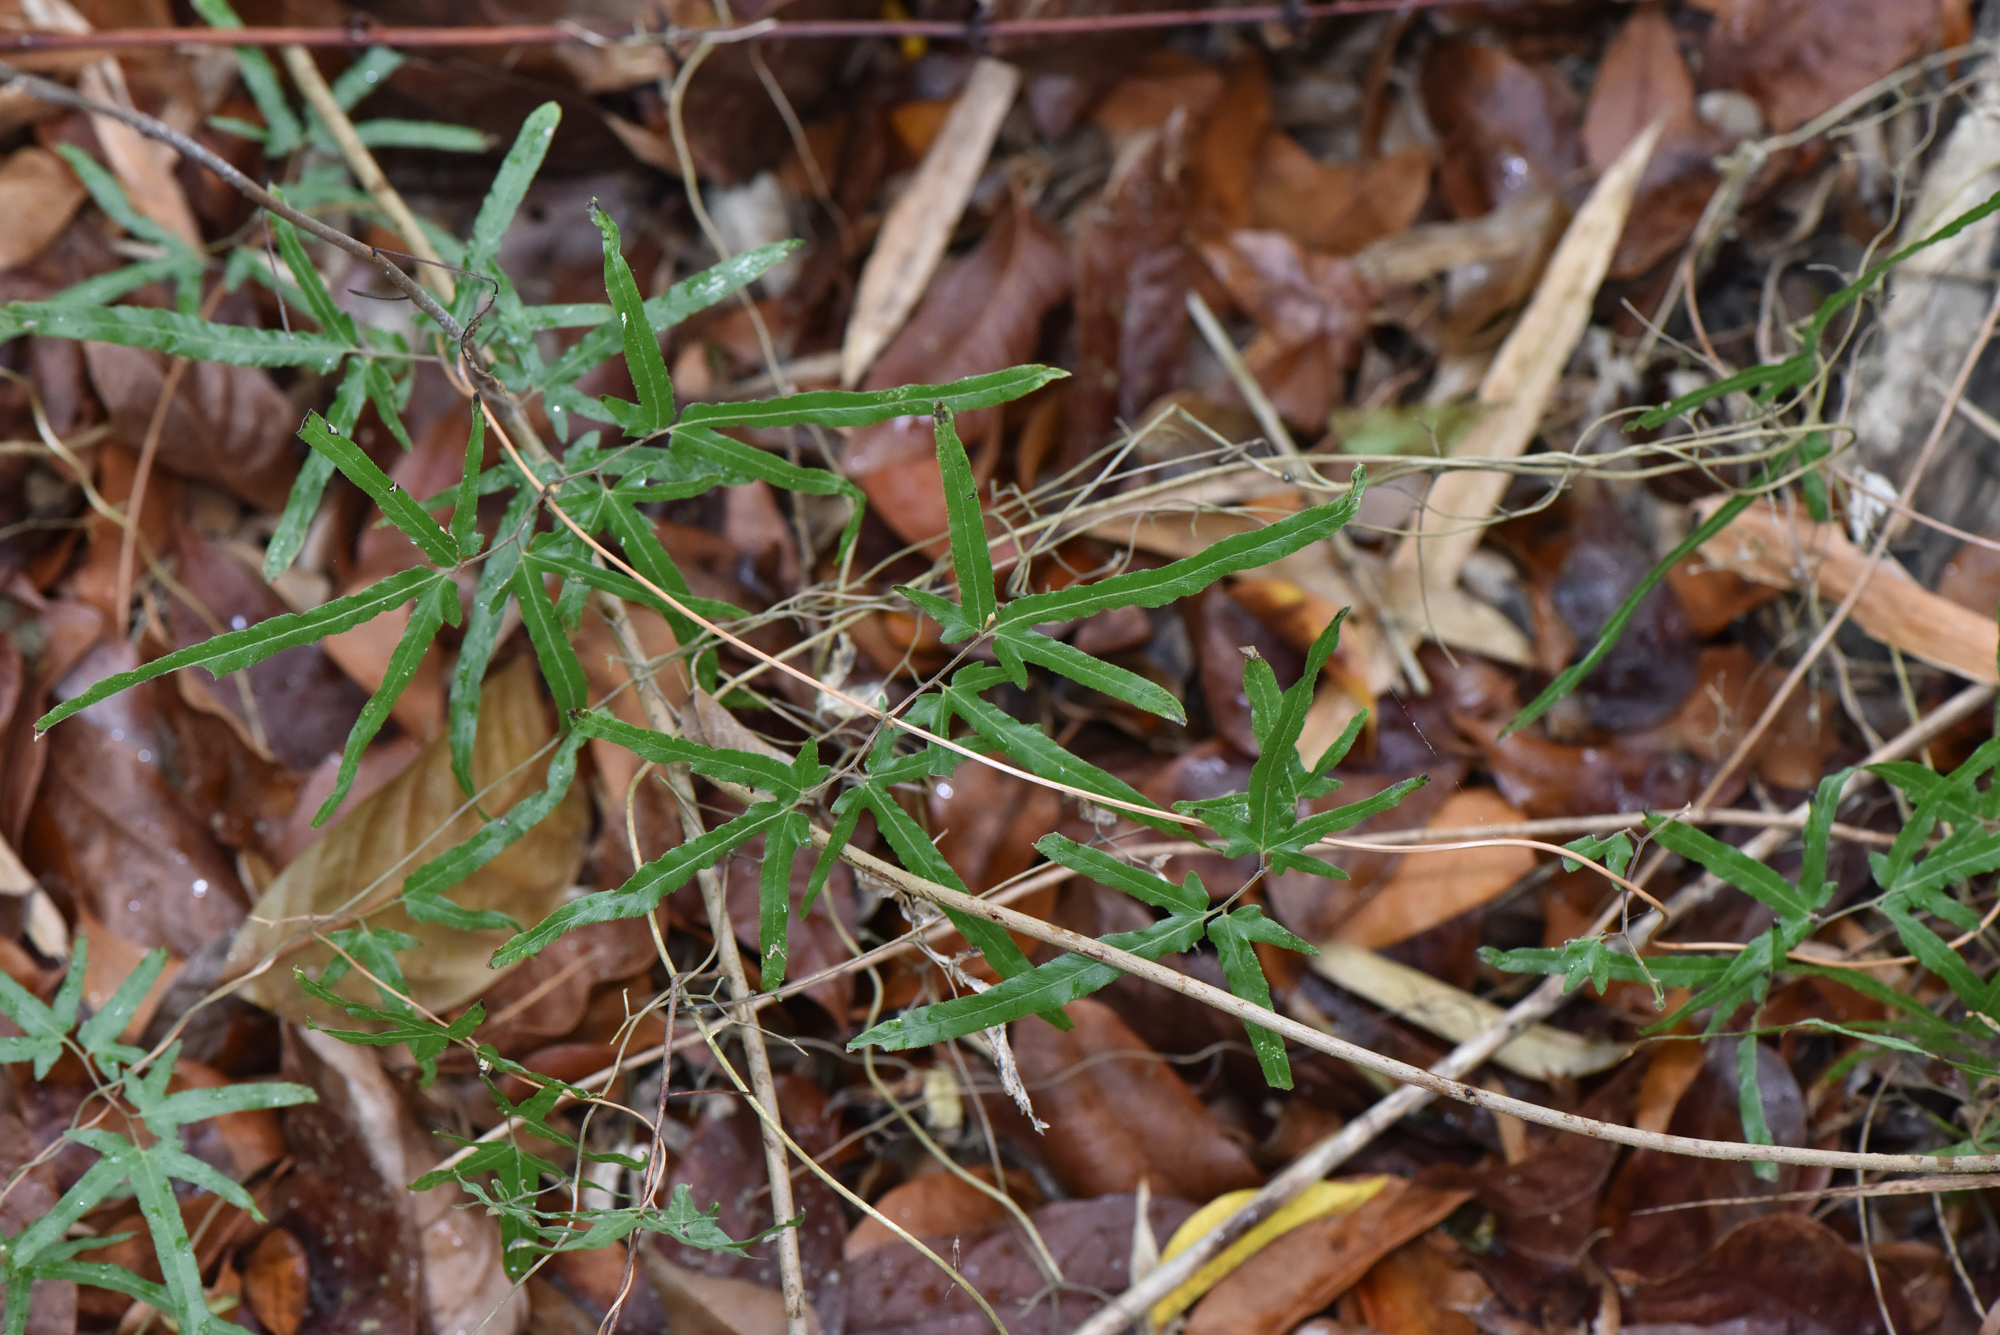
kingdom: Plantae
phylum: Tracheophyta
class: Polypodiopsida
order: Schizaeales
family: Lygodiaceae
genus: Lygodium
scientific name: Lygodium japonicum
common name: Japanese climbing fern
